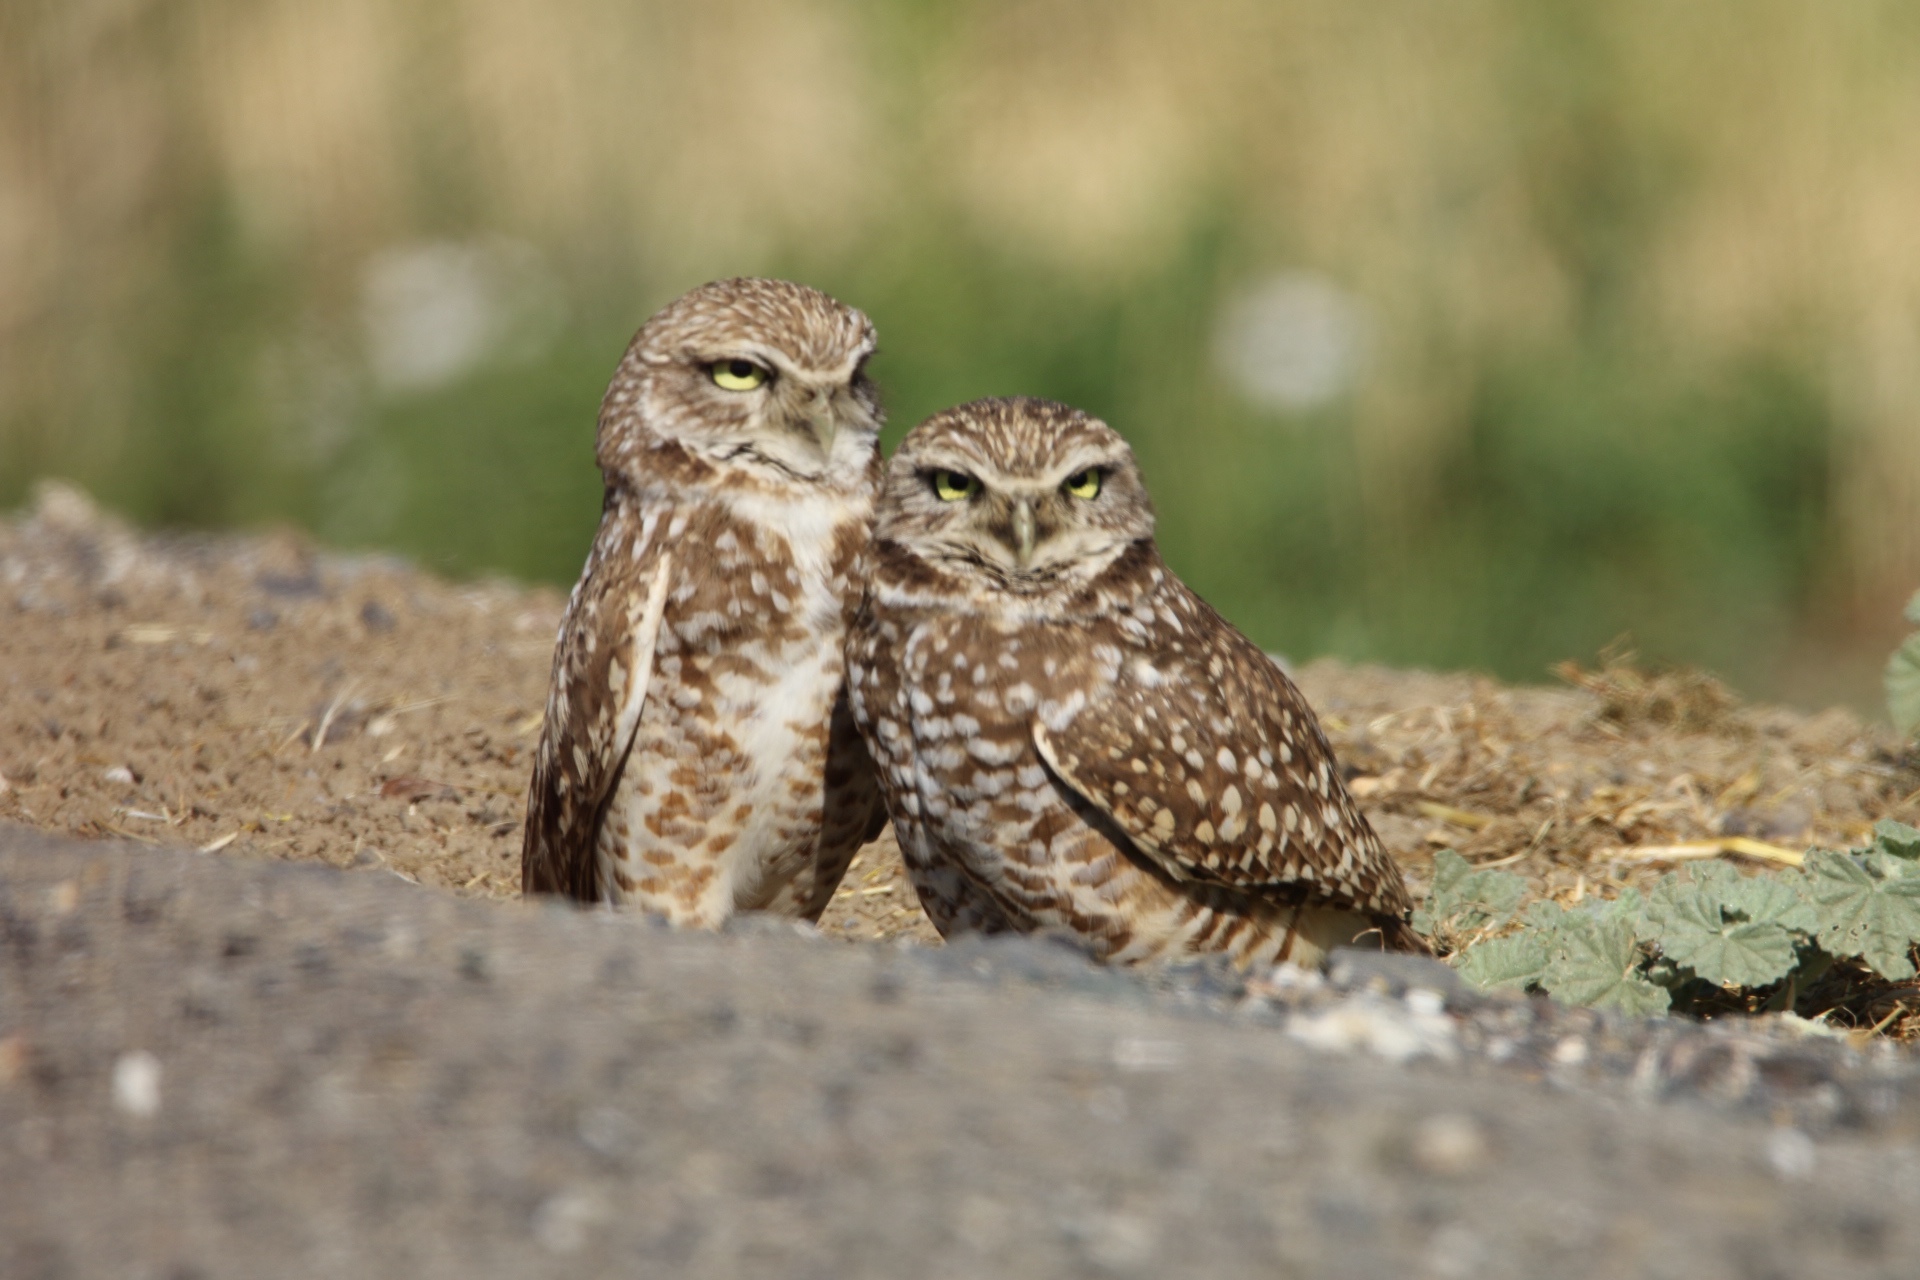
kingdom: Animalia
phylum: Chordata
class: Aves
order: Strigiformes
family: Strigidae
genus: Athene
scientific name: Athene cunicularia
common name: Burrowing owl
